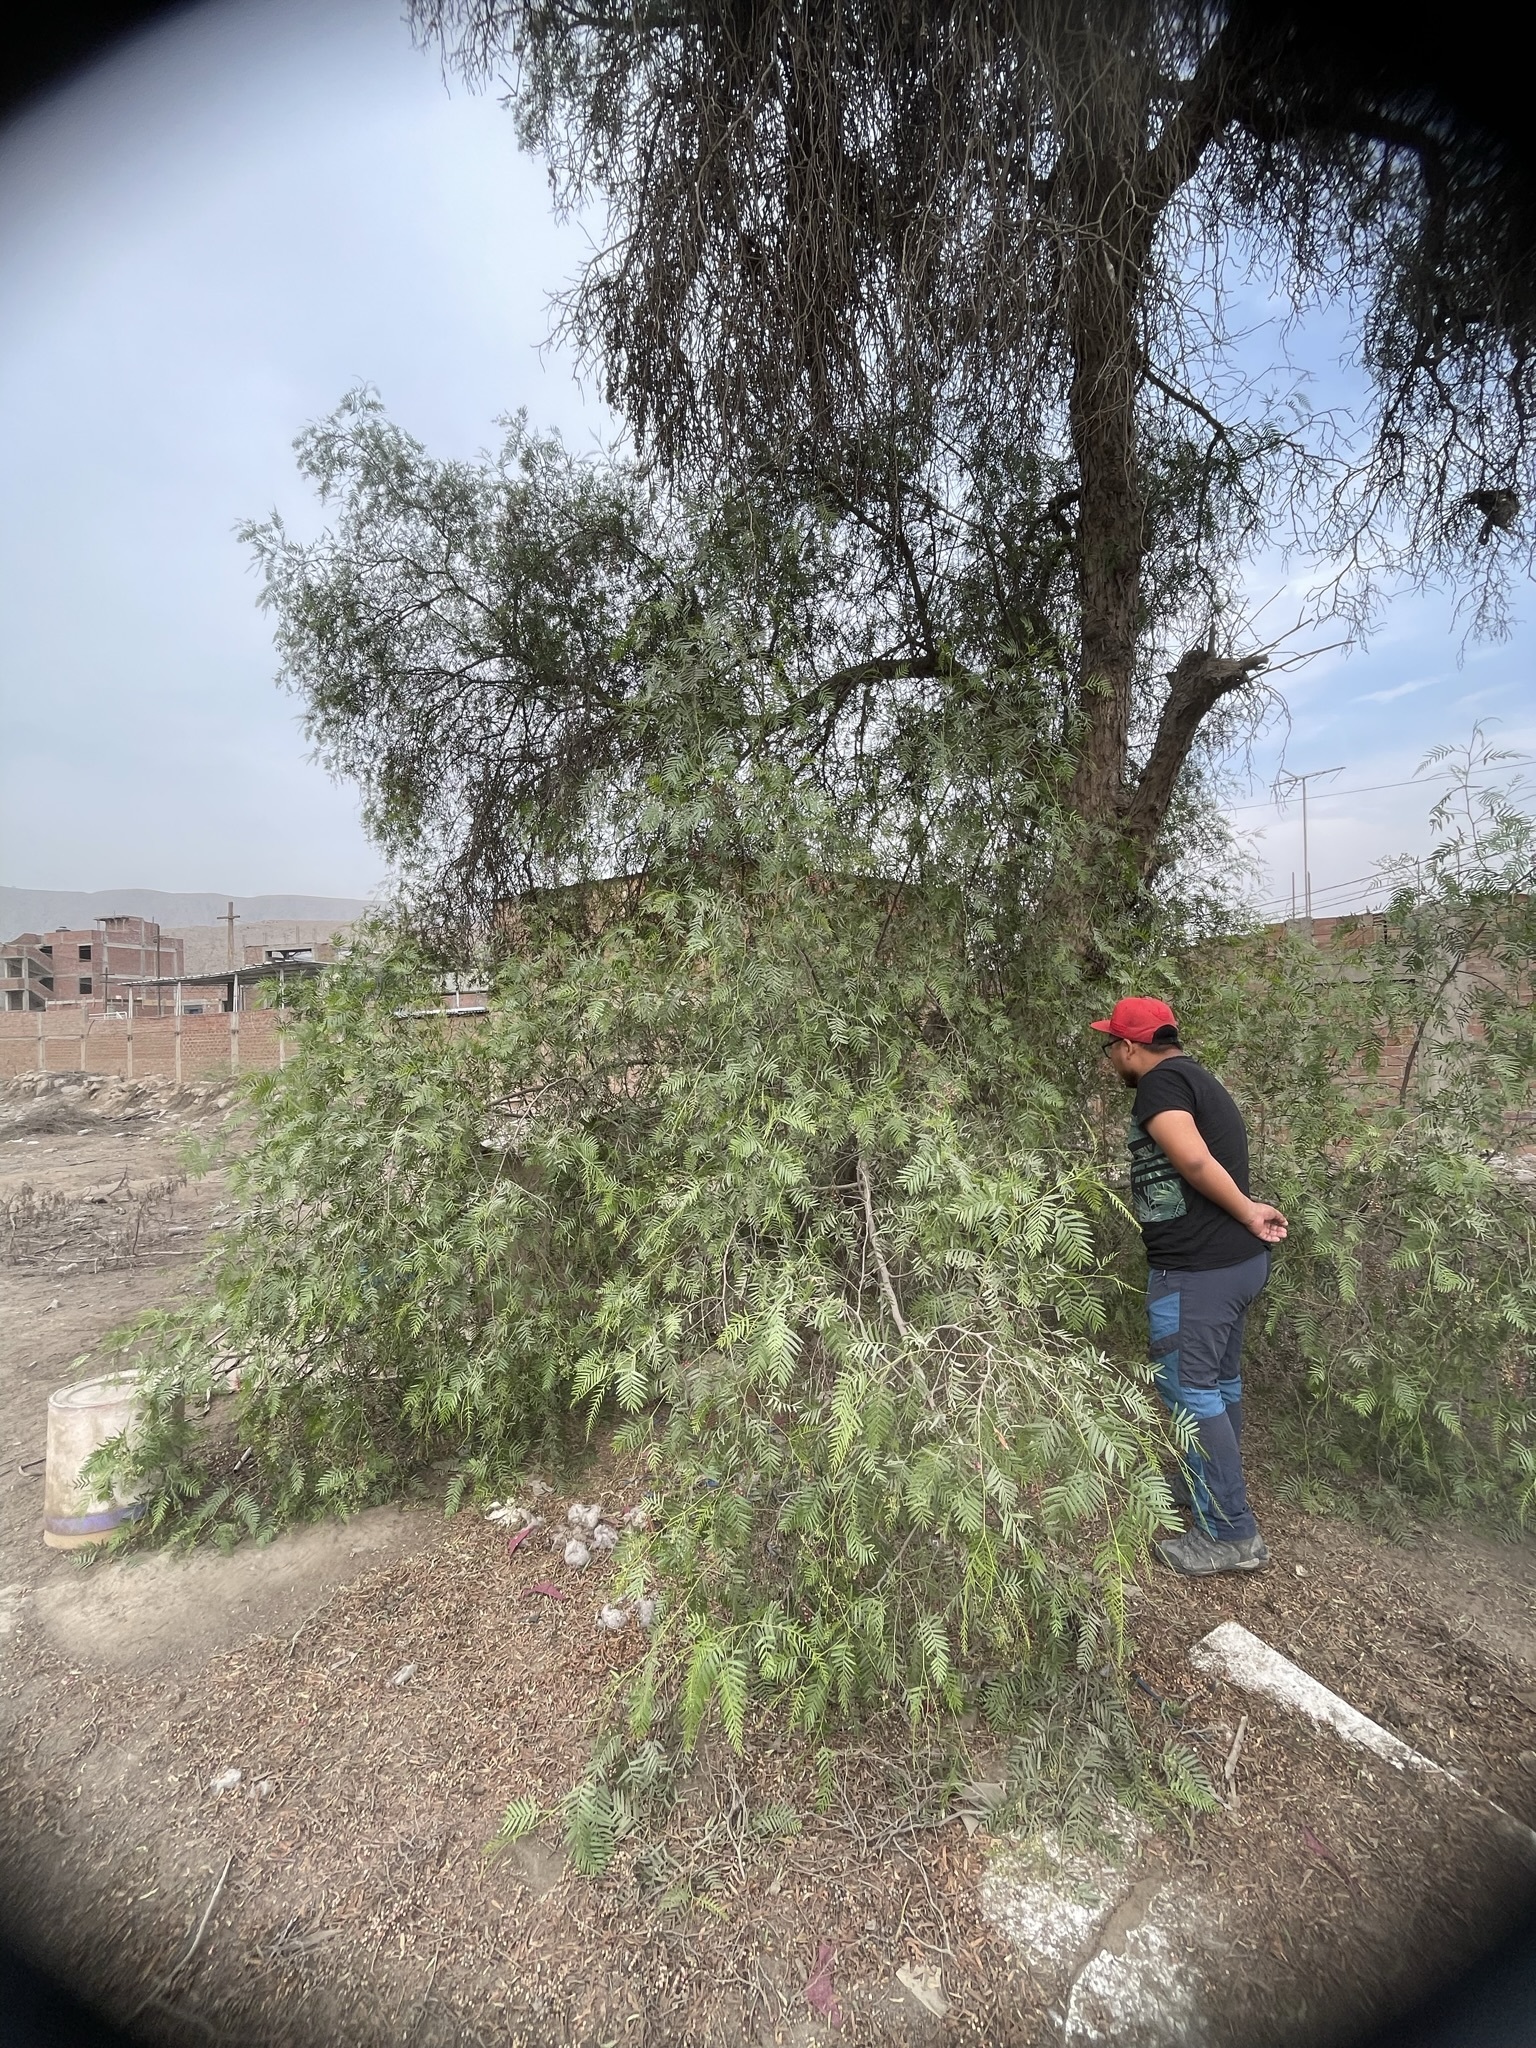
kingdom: Plantae
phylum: Tracheophyta
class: Magnoliopsida
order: Sapindales
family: Anacardiaceae
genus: Schinus
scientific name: Schinus molle
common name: Peruvian peppertree
